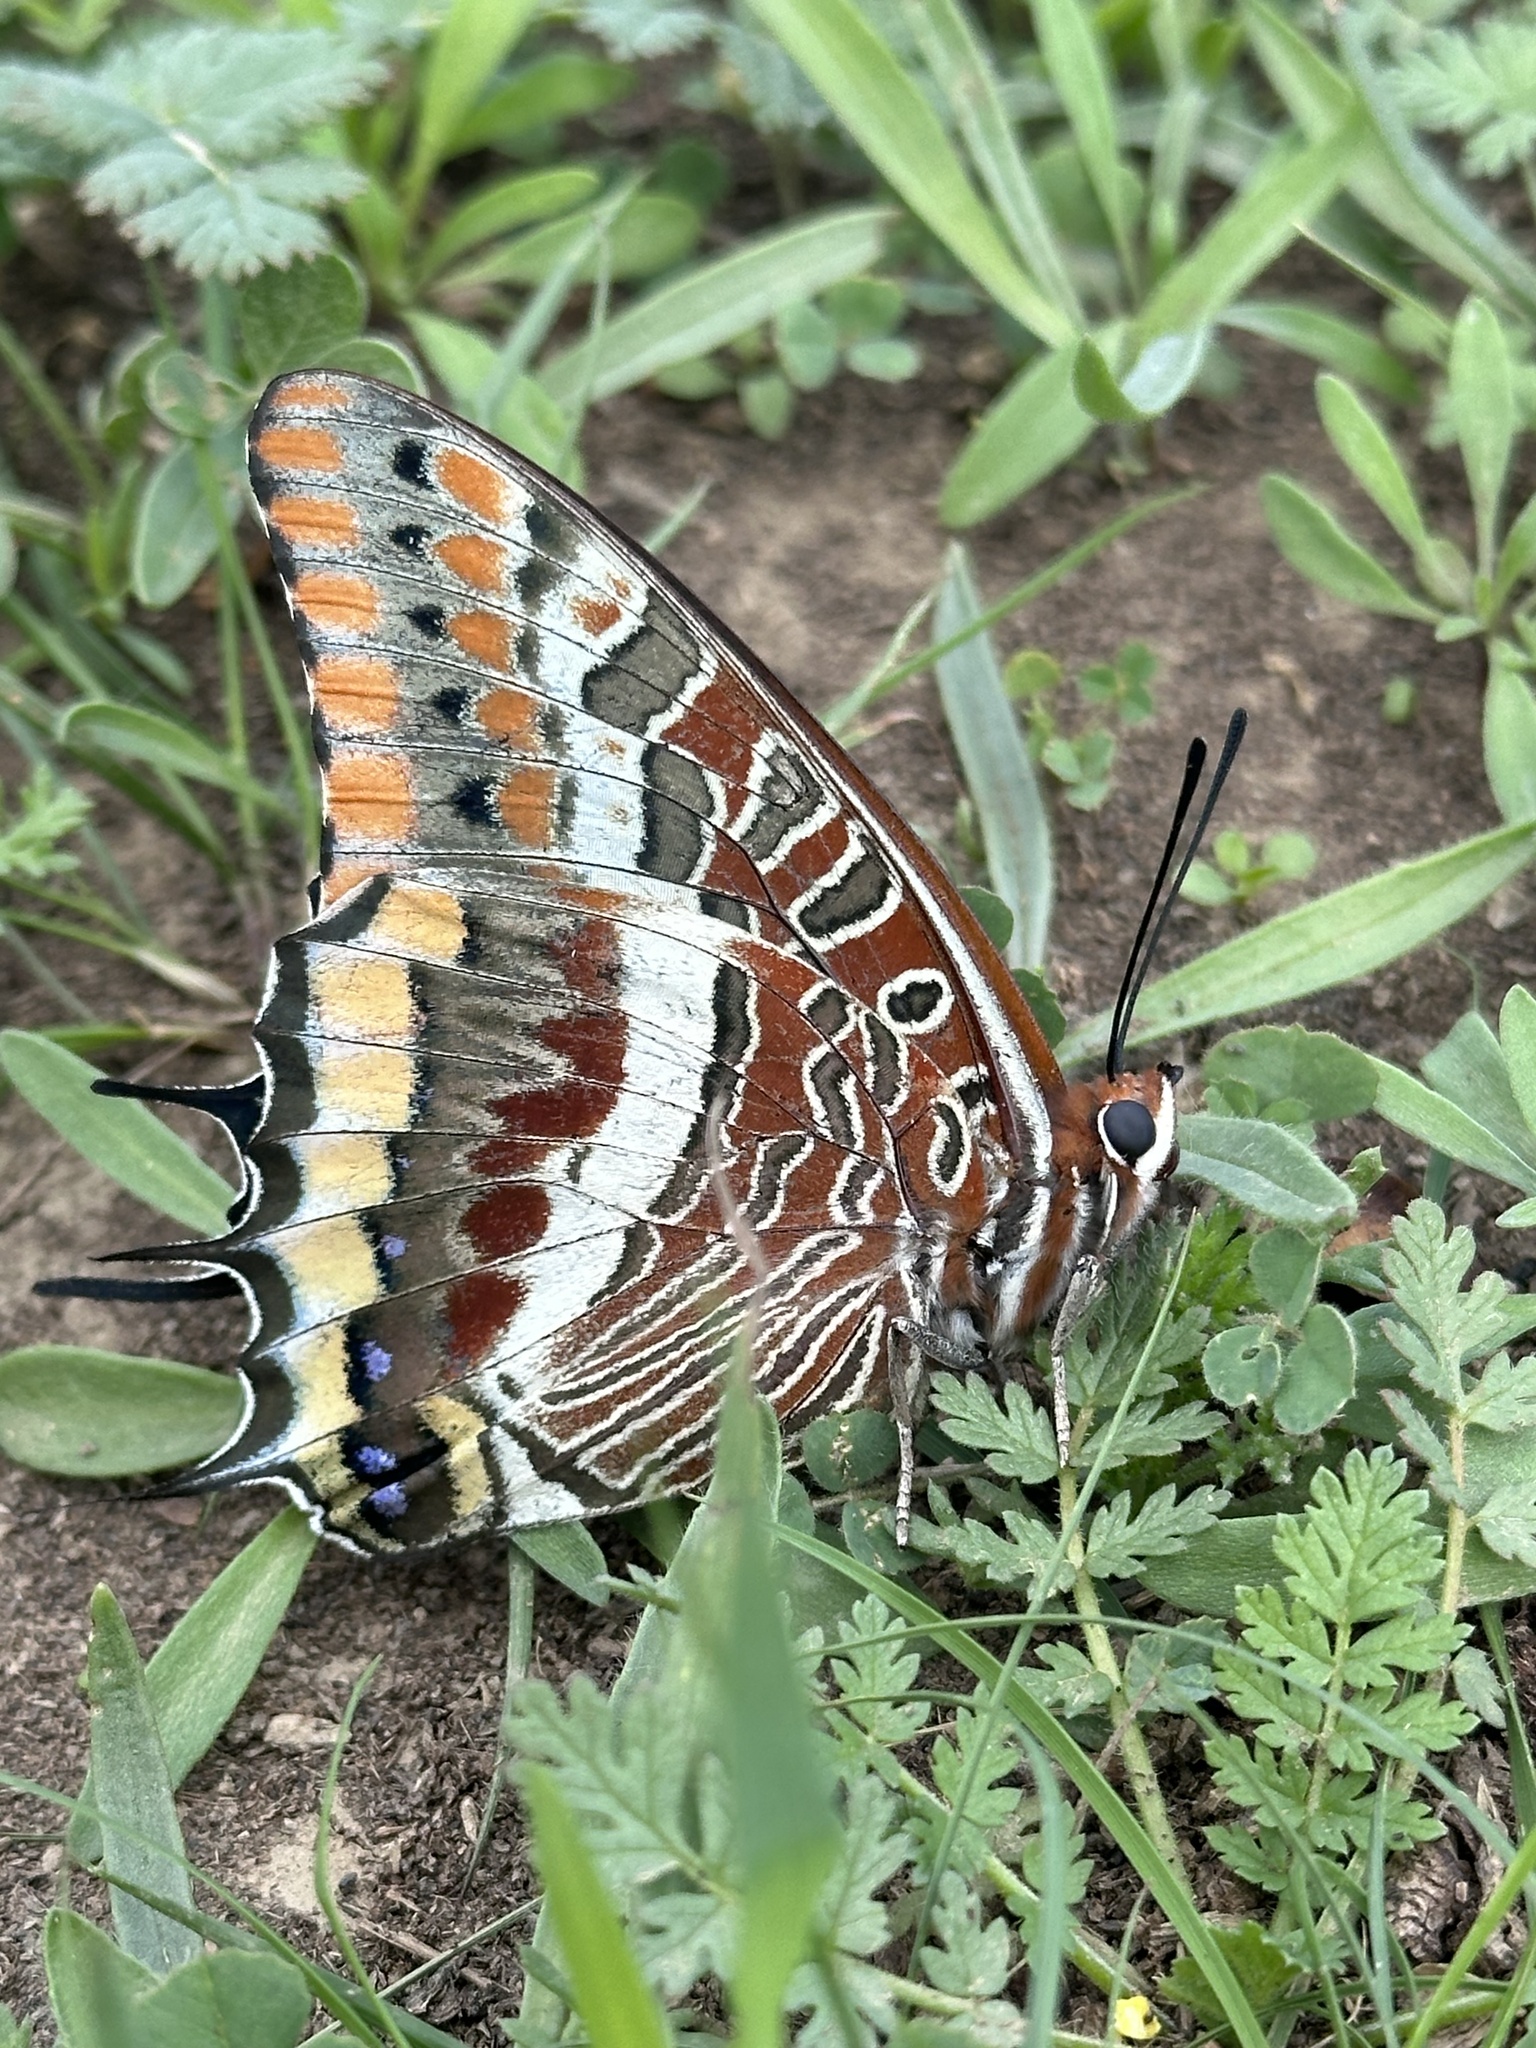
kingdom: Animalia
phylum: Arthropoda
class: Insecta
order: Lepidoptera
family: Nymphalidae
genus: Charaxes
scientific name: Charaxes jasius
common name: Two tailed pasha
